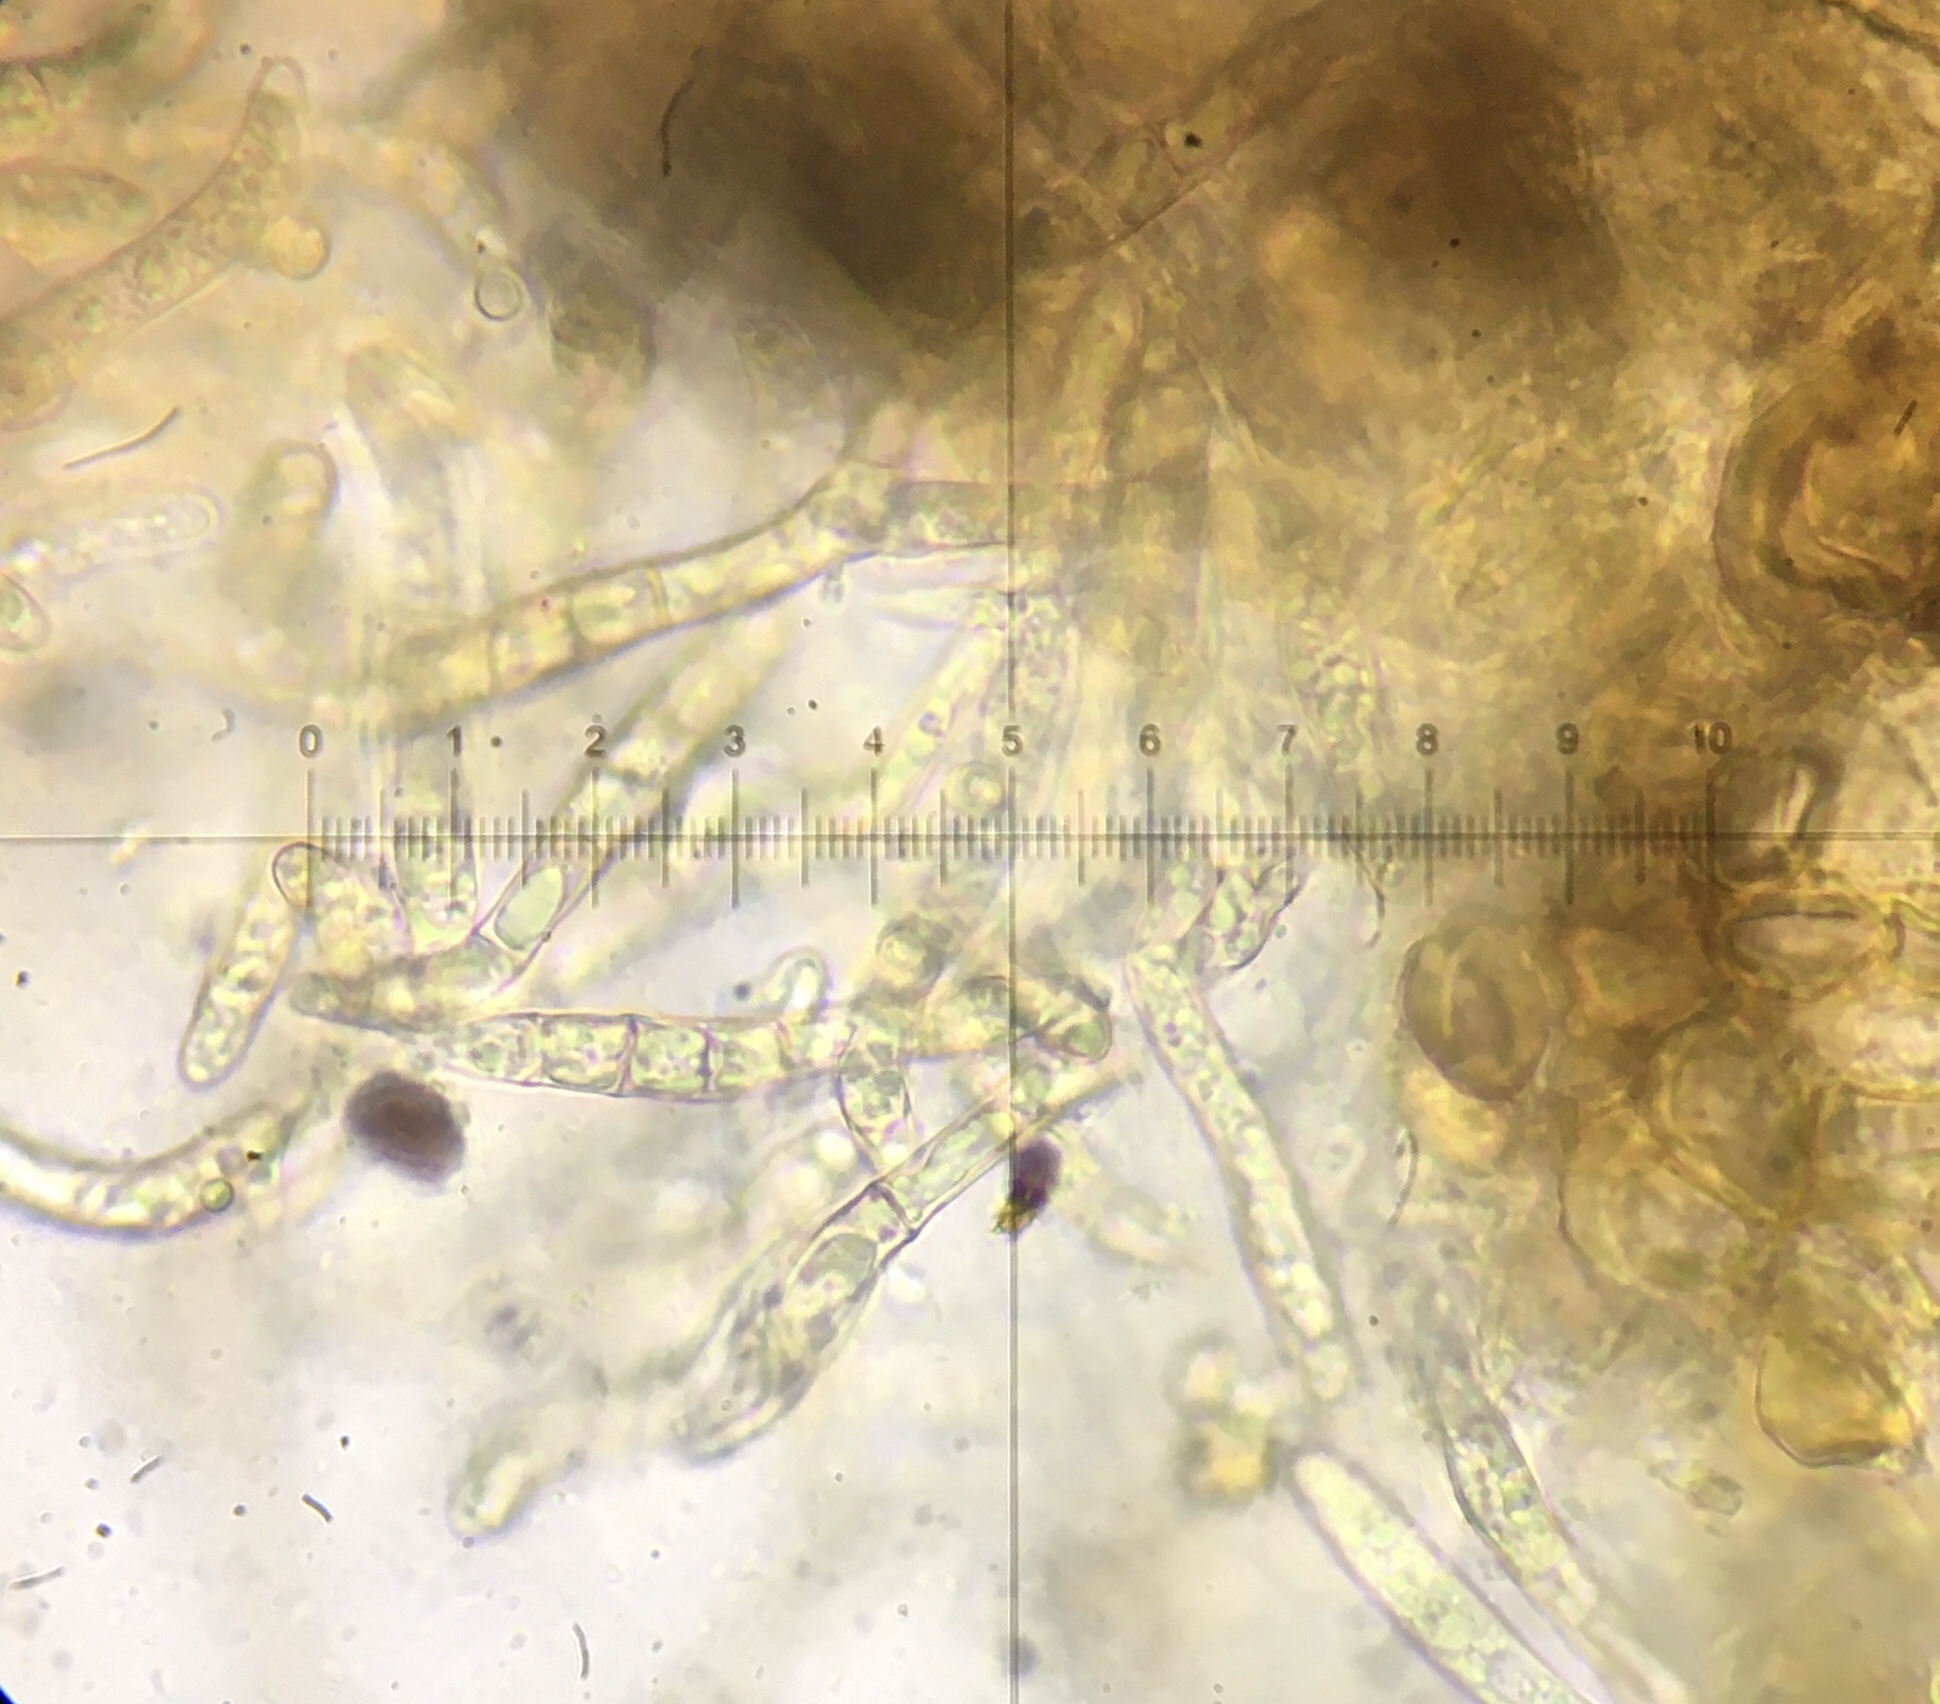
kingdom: Fungi
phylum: Ascomycota
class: Sordariomycetes
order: Sordariales
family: Lasiosphaeridaceae
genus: Lasiosphaeris
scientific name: Lasiosphaeris hirsuta
